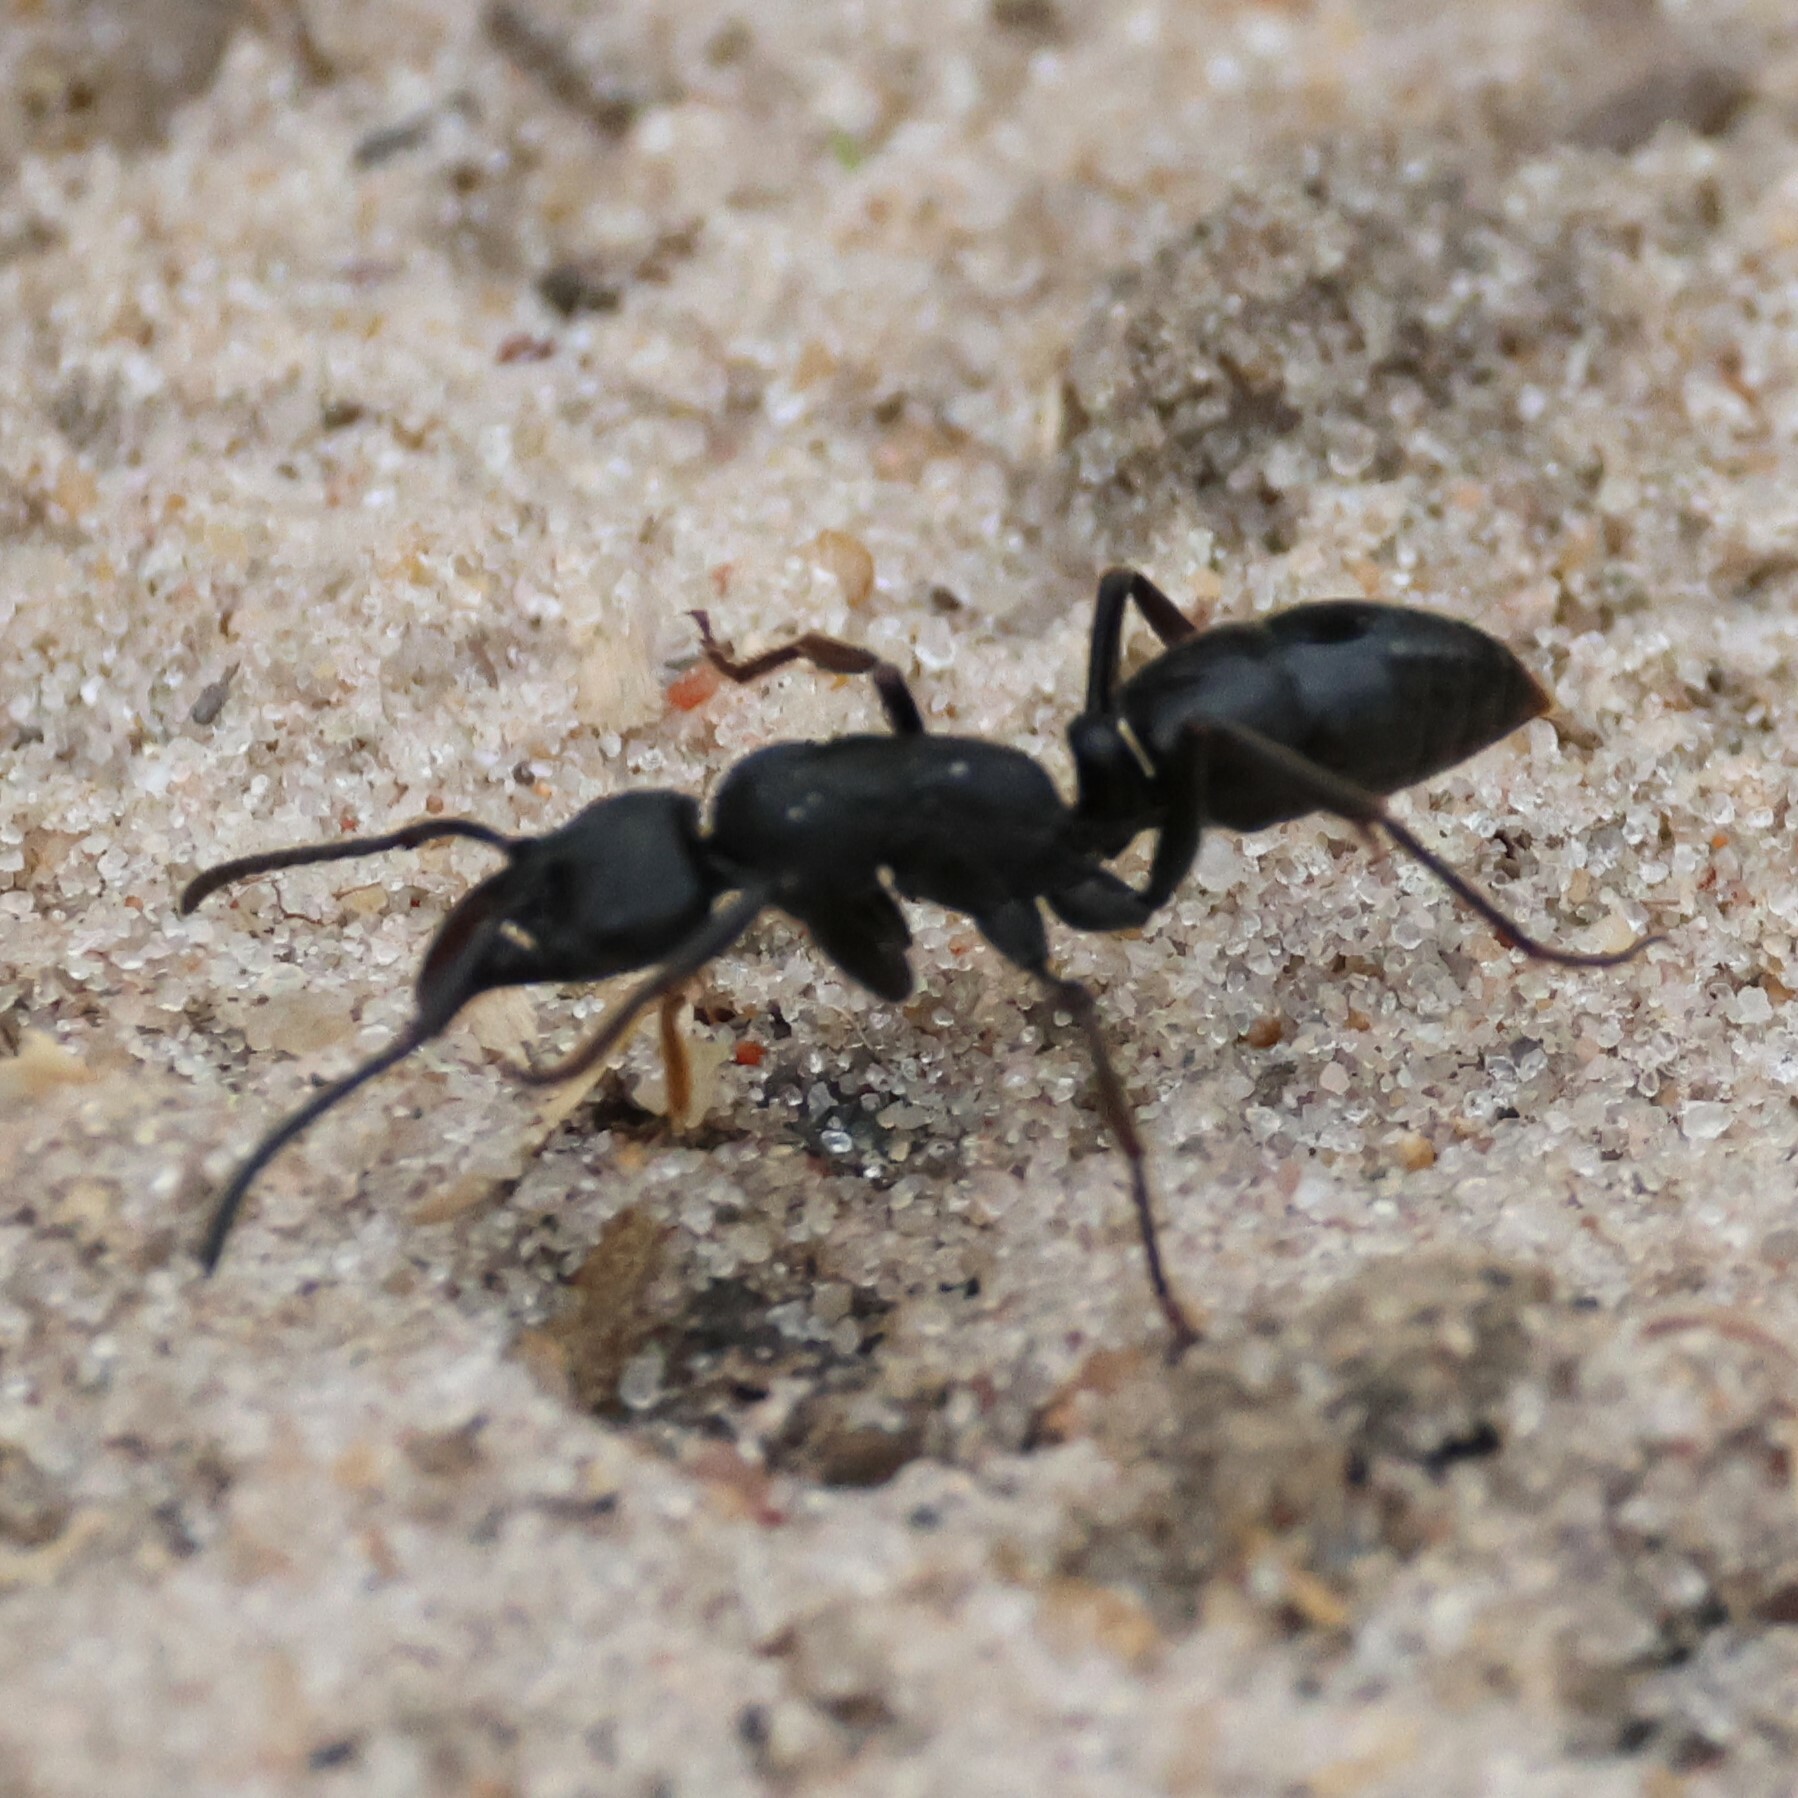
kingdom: Animalia
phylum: Arthropoda
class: Insecta
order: Hymenoptera
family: Formicidae
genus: Paltothyreus
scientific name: Paltothyreus tarsatus
